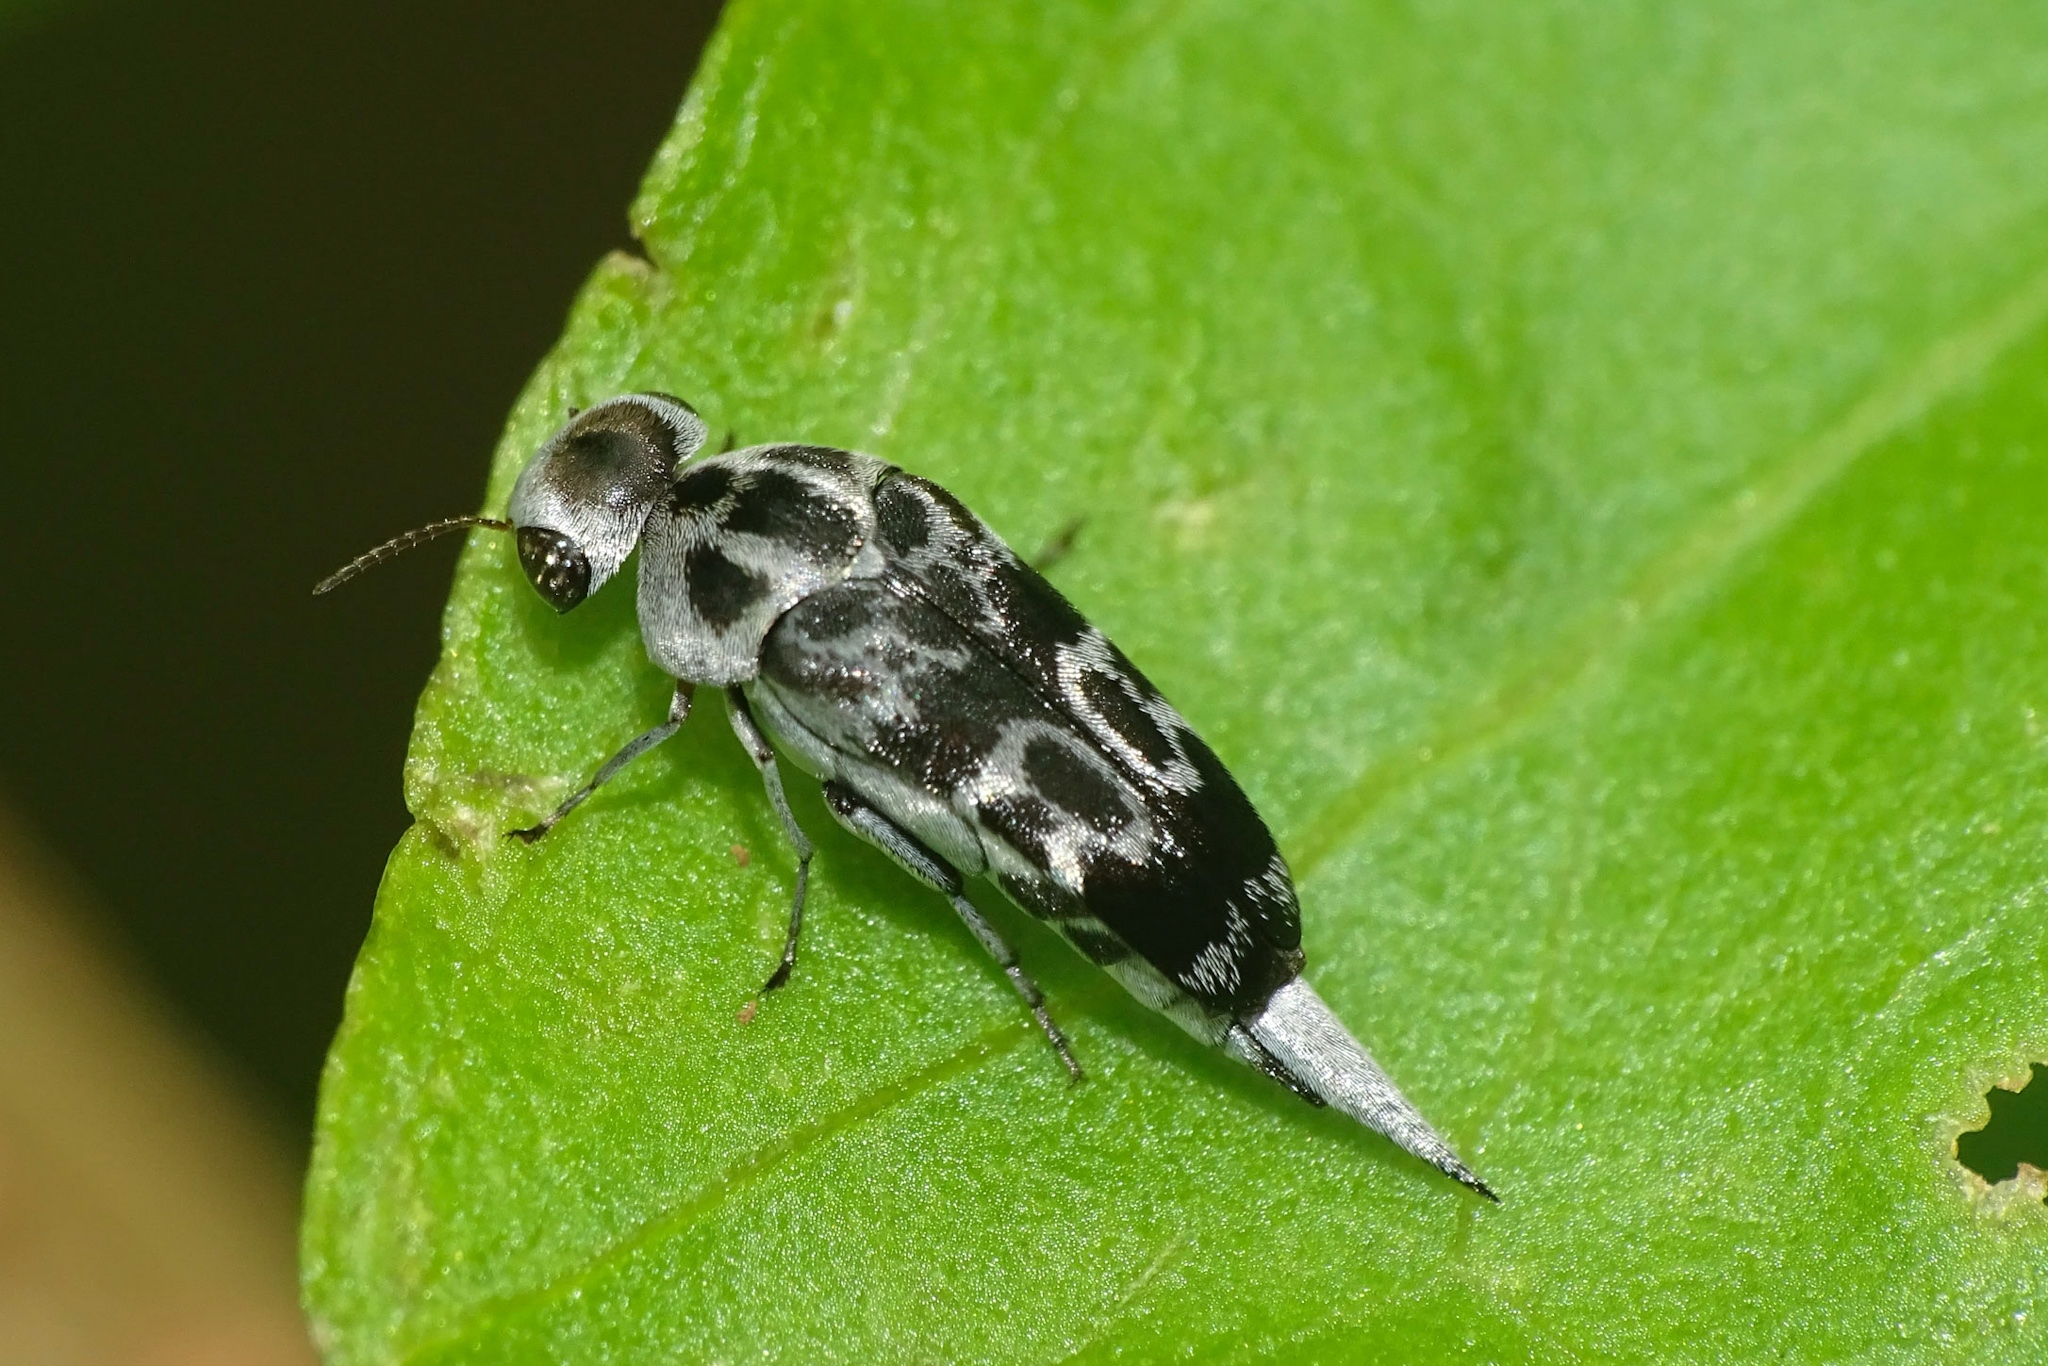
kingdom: Animalia
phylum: Arthropoda
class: Insecta
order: Coleoptera
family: Mordellidae
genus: Glipa
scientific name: Glipa
